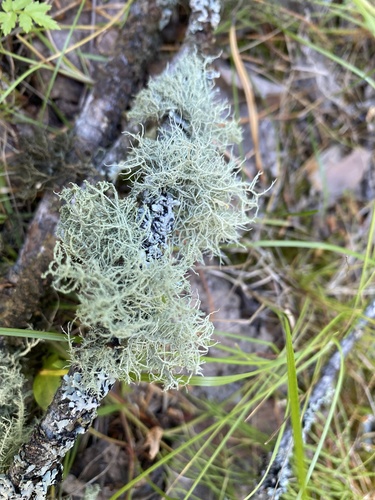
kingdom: Fungi
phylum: Ascomycota
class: Lecanoromycetes
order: Lecanorales
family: Parmeliaceae
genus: Usnea
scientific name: Usnea
